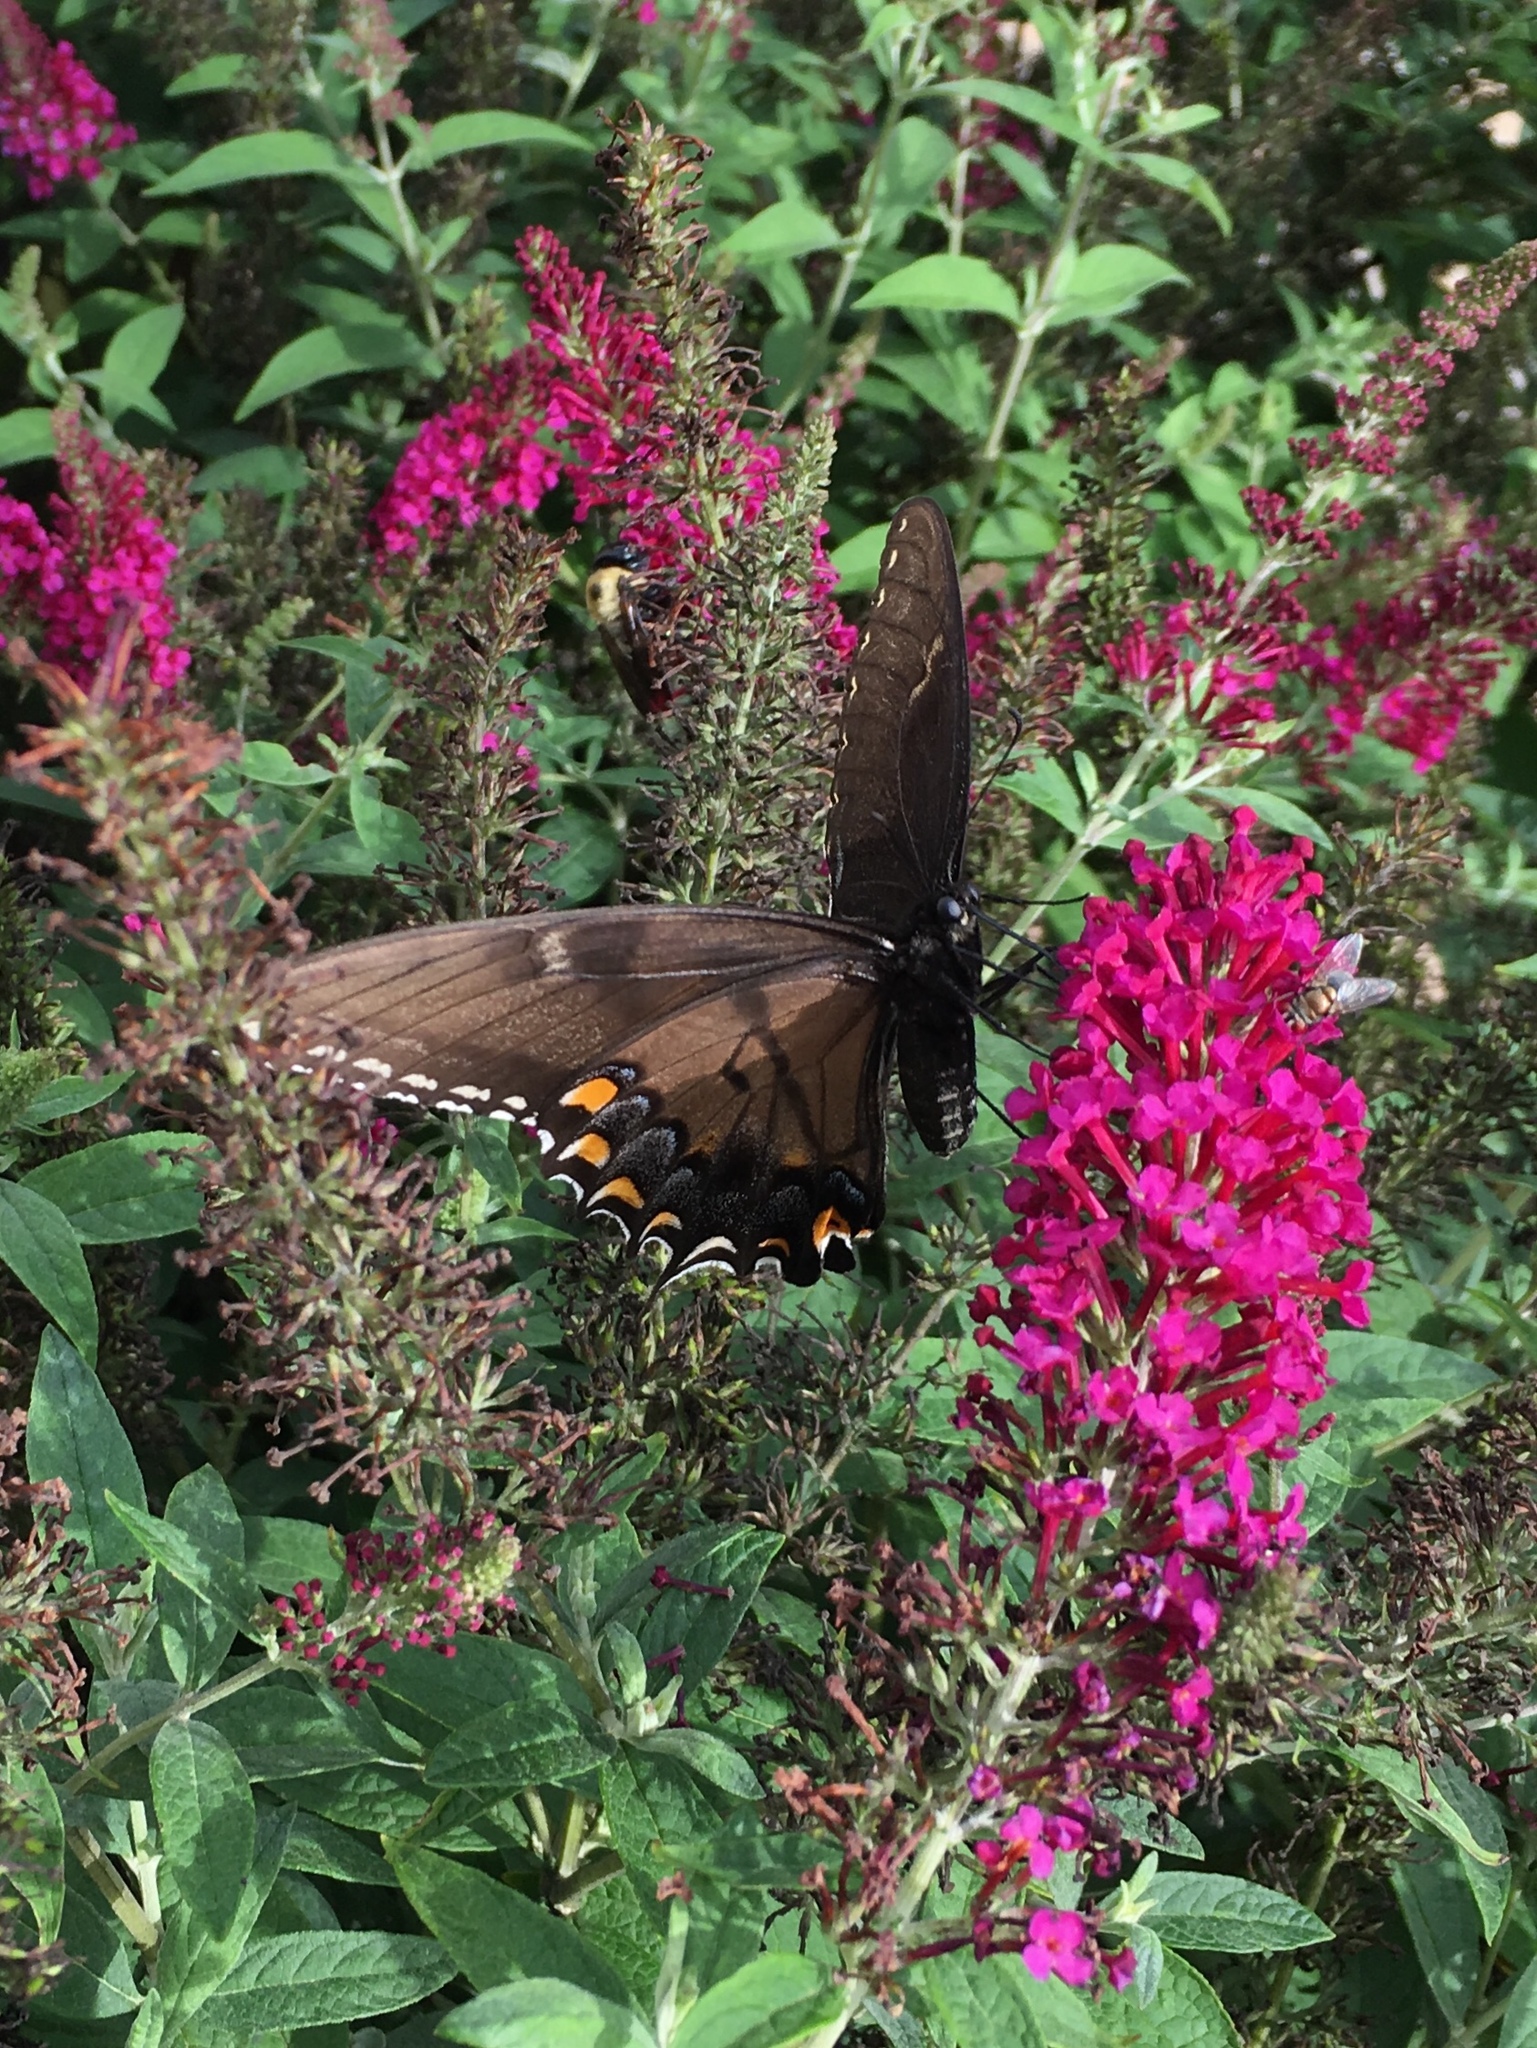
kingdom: Animalia
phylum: Arthropoda
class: Insecta
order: Lepidoptera
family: Papilionidae
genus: Papilio
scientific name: Papilio glaucus
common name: Tiger swallowtail
